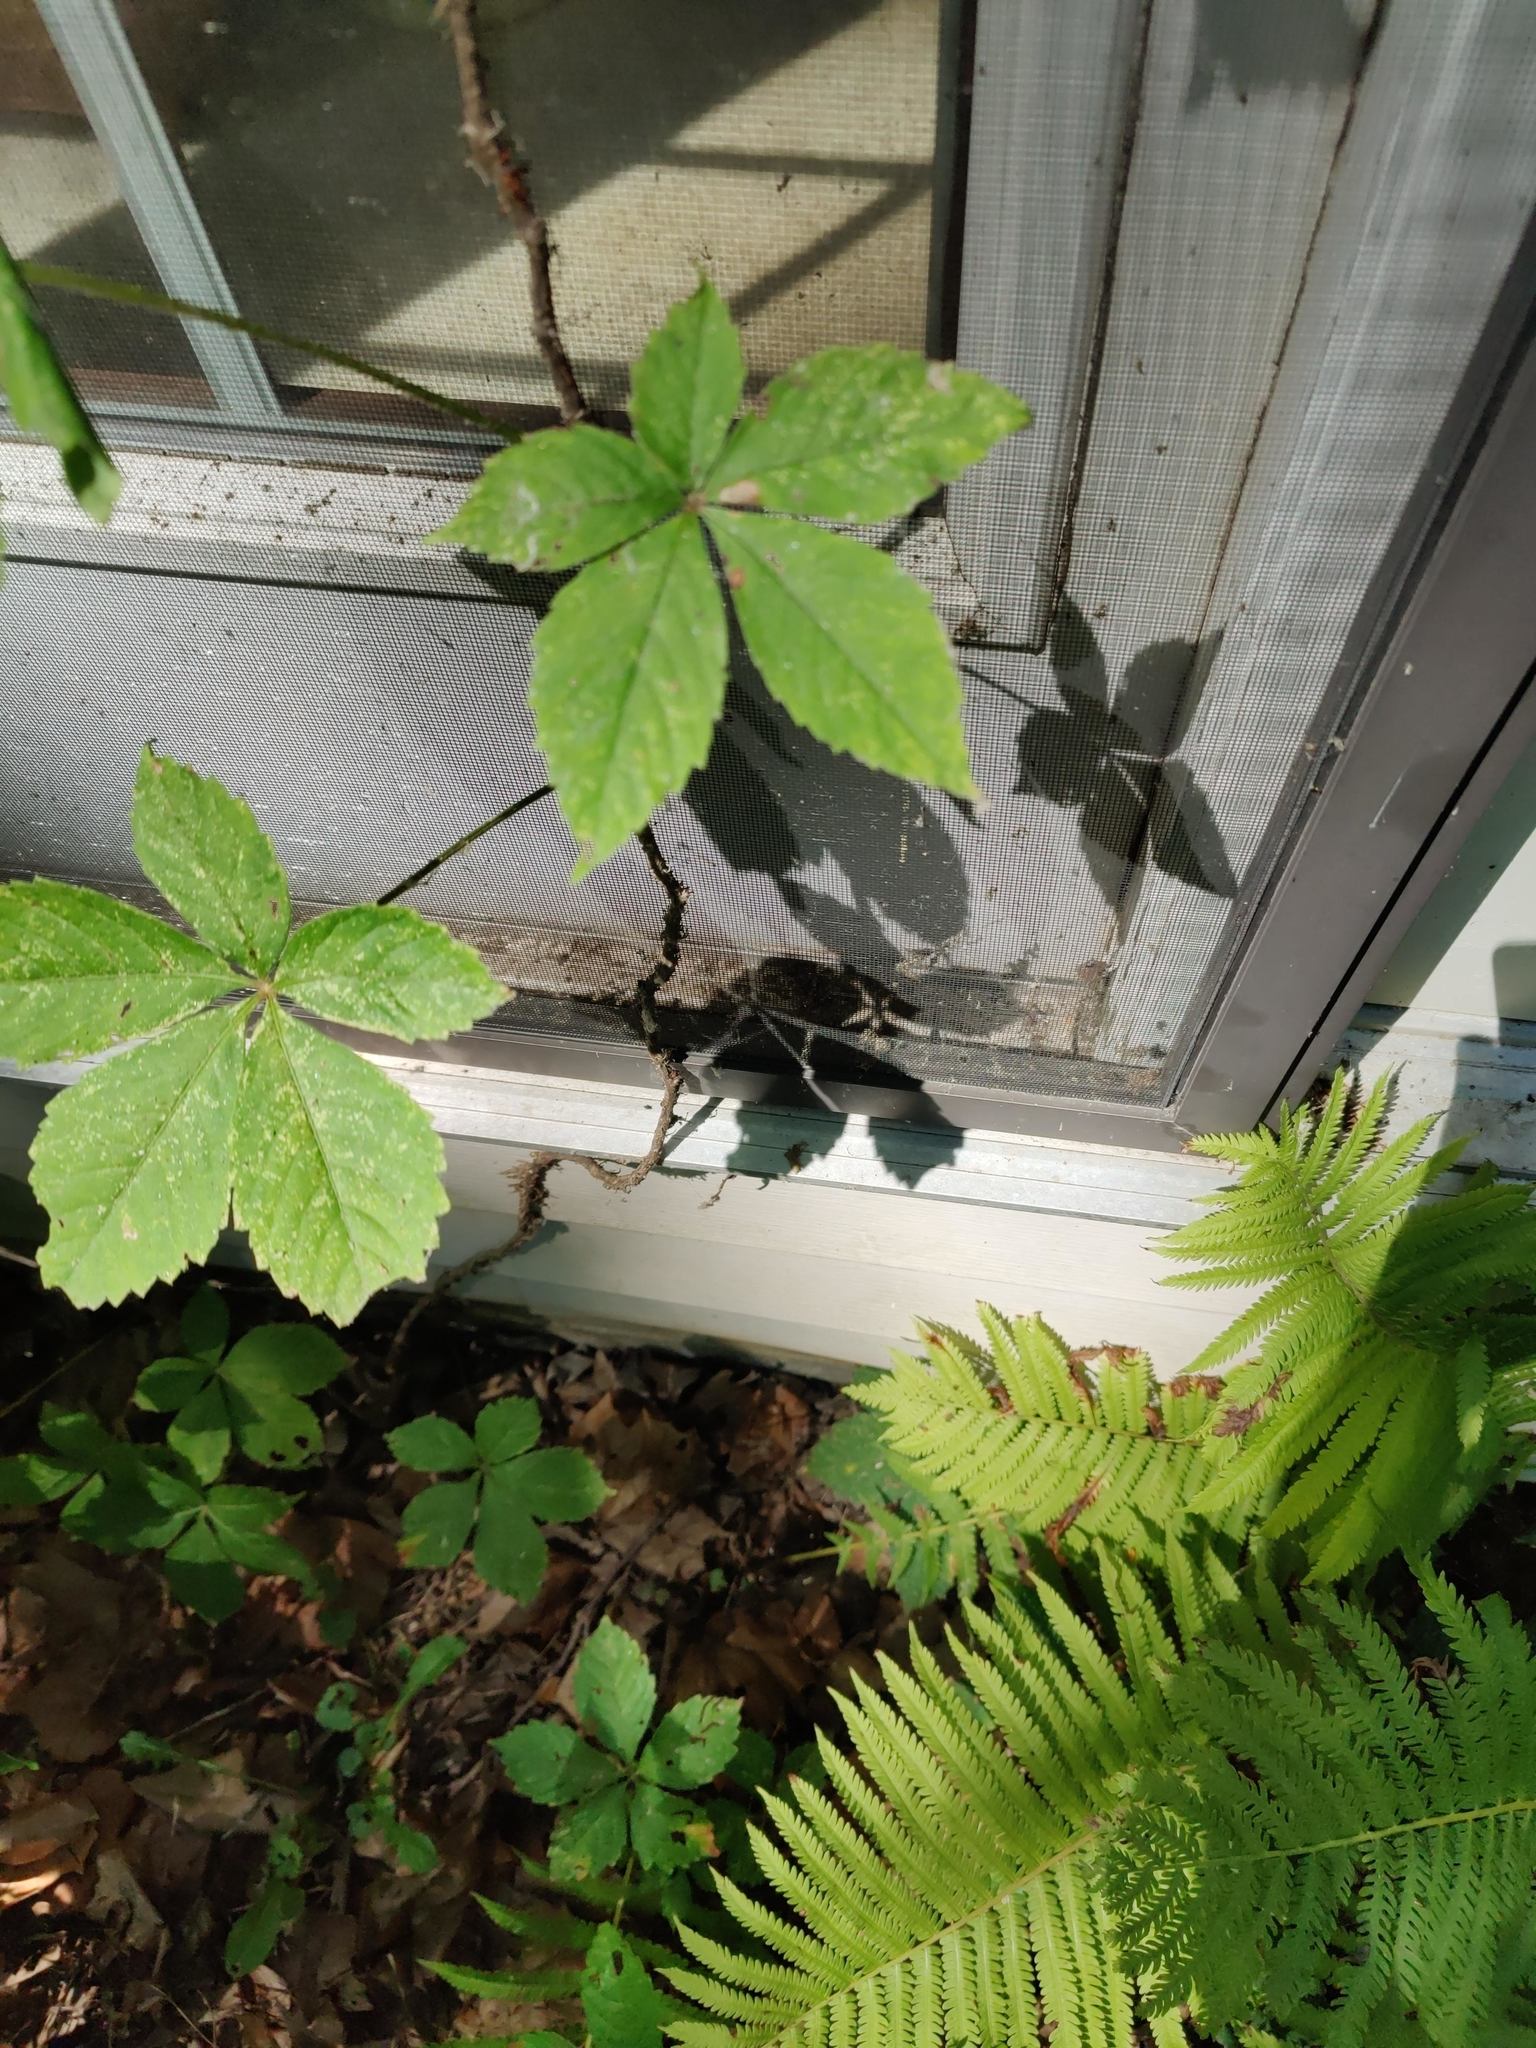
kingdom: Plantae
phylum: Tracheophyta
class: Magnoliopsida
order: Vitales
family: Vitaceae
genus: Parthenocissus
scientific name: Parthenocissus quinquefolia
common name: Virginia-creeper
